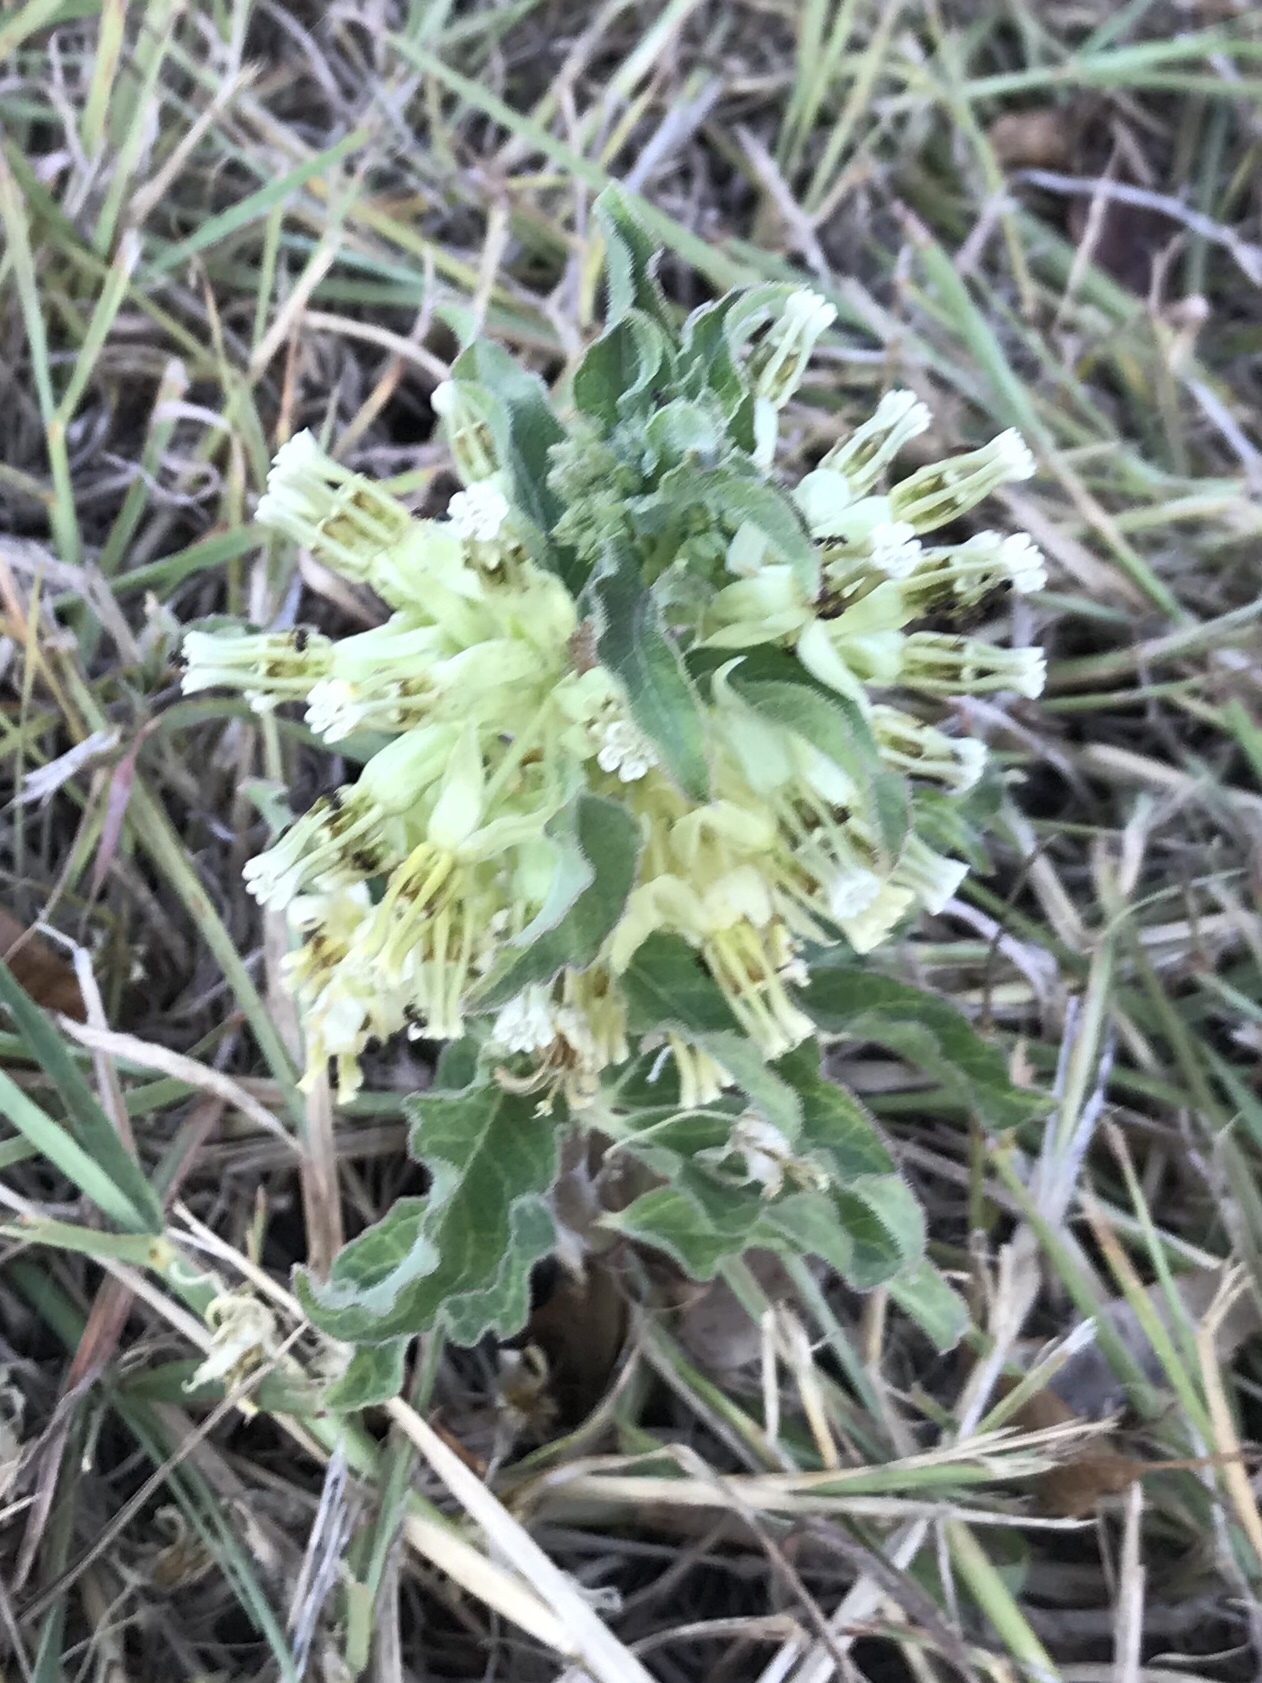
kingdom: Plantae
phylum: Tracheophyta
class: Magnoliopsida
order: Gentianales
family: Apocynaceae
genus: Asclepias
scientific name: Asclepias oenotheroides
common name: Zizotes milkweed
